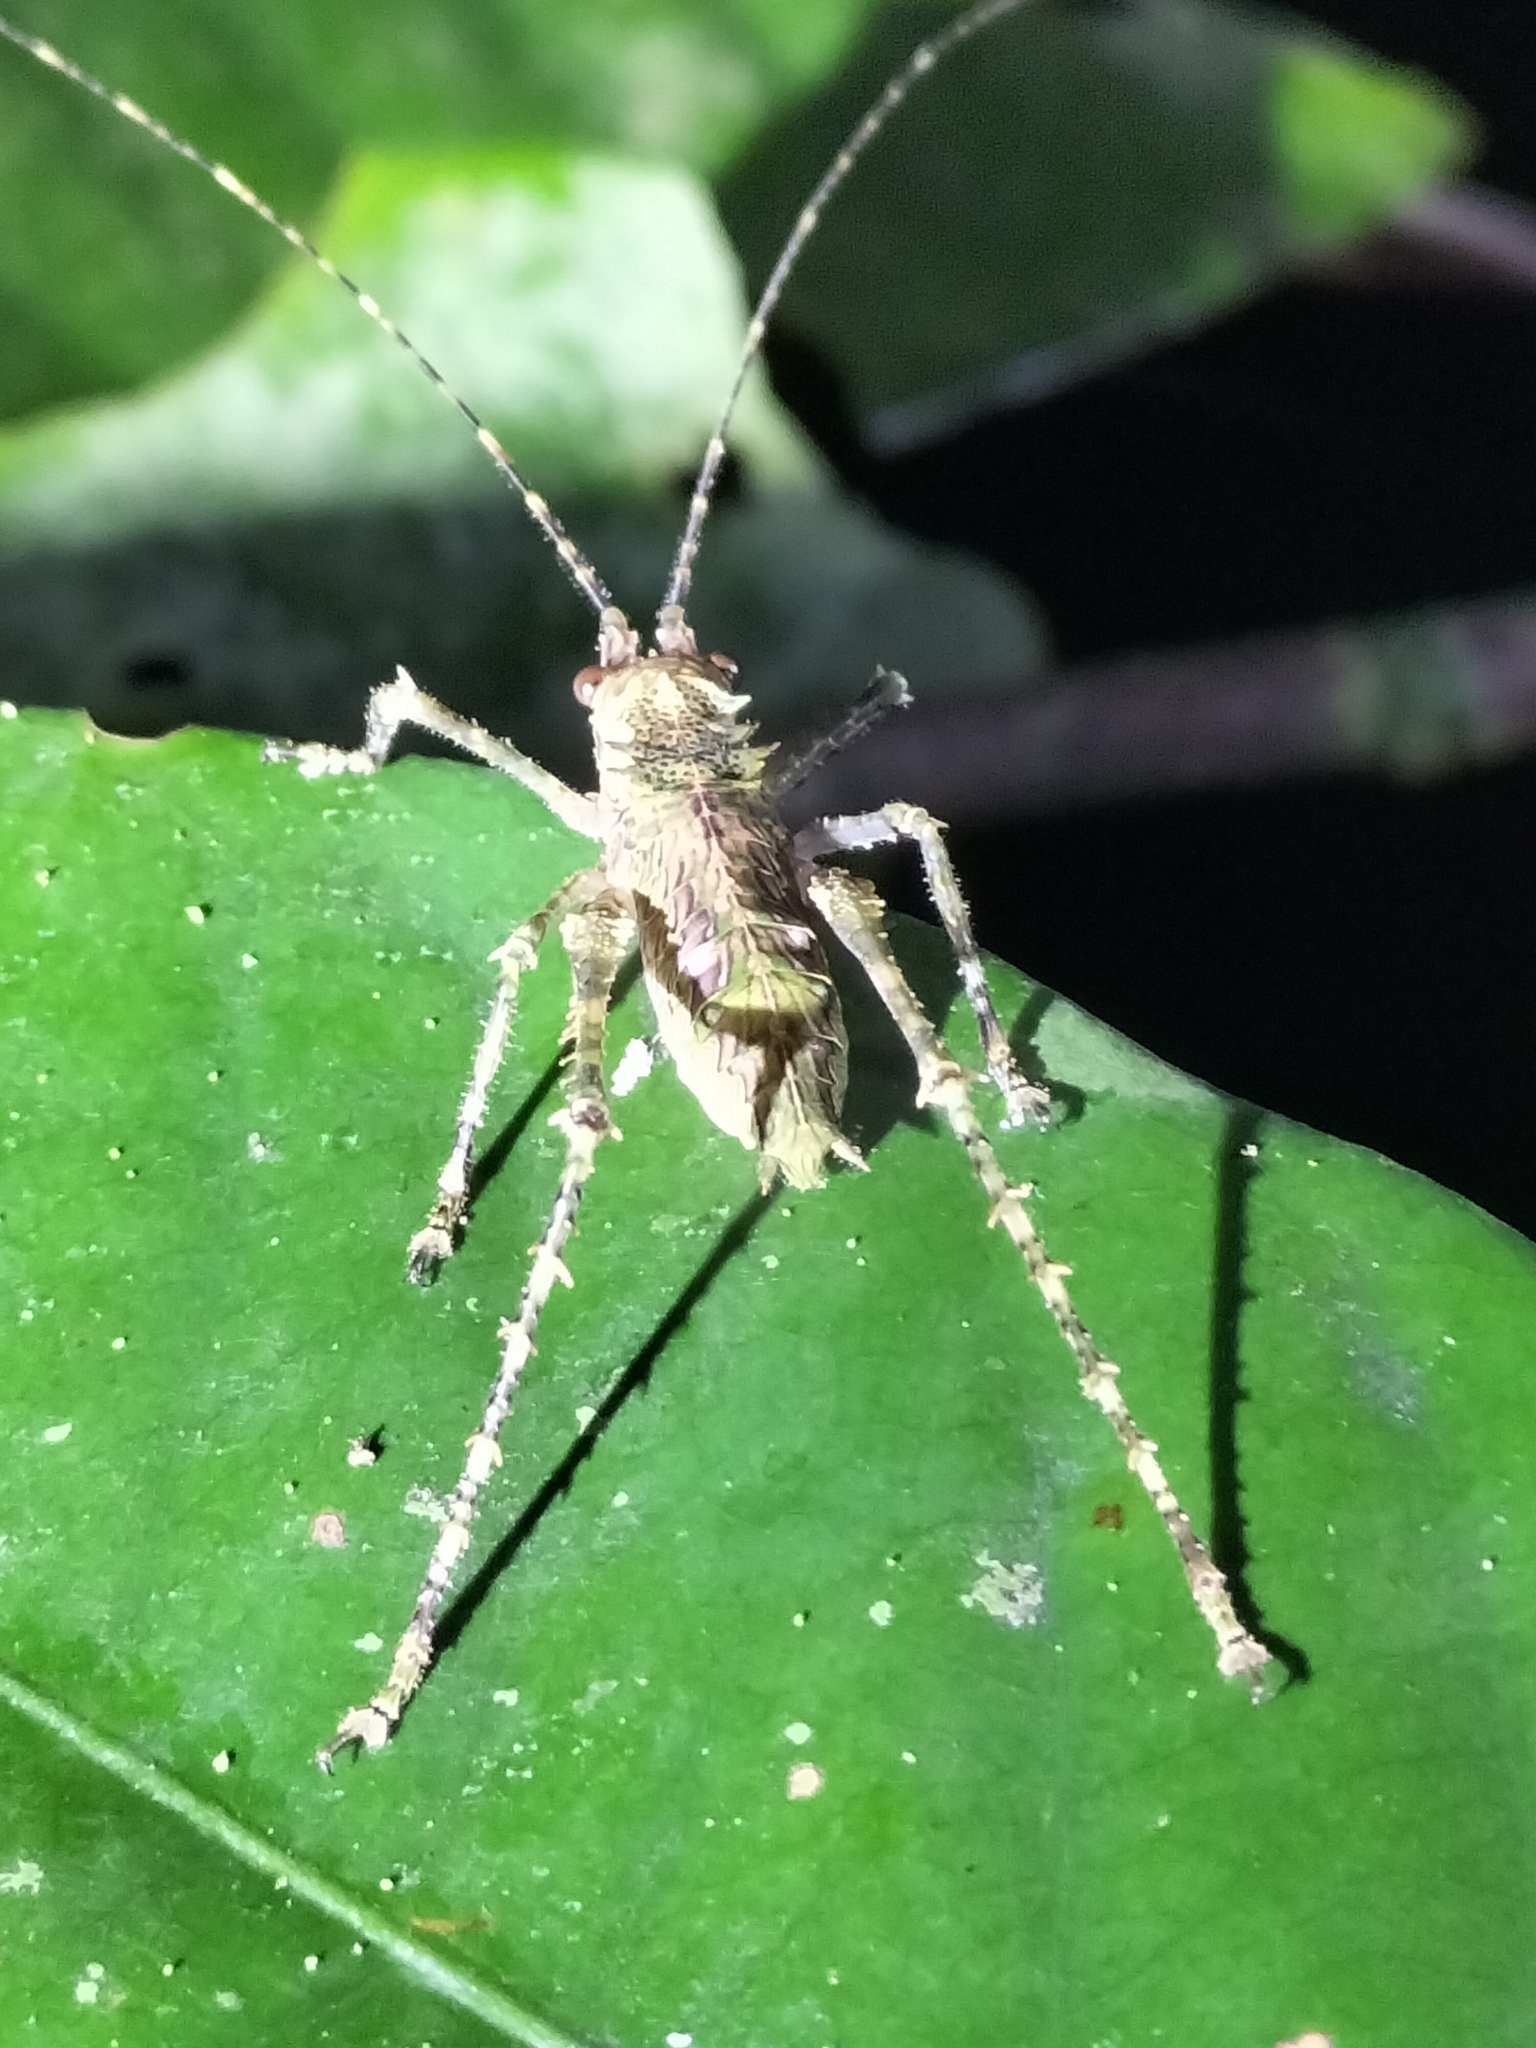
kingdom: Animalia
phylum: Arthropoda
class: Insecta
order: Orthoptera
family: Tettigoniidae
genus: Phricta
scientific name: Phricta spinosa
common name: Giant spiny forest katydid
